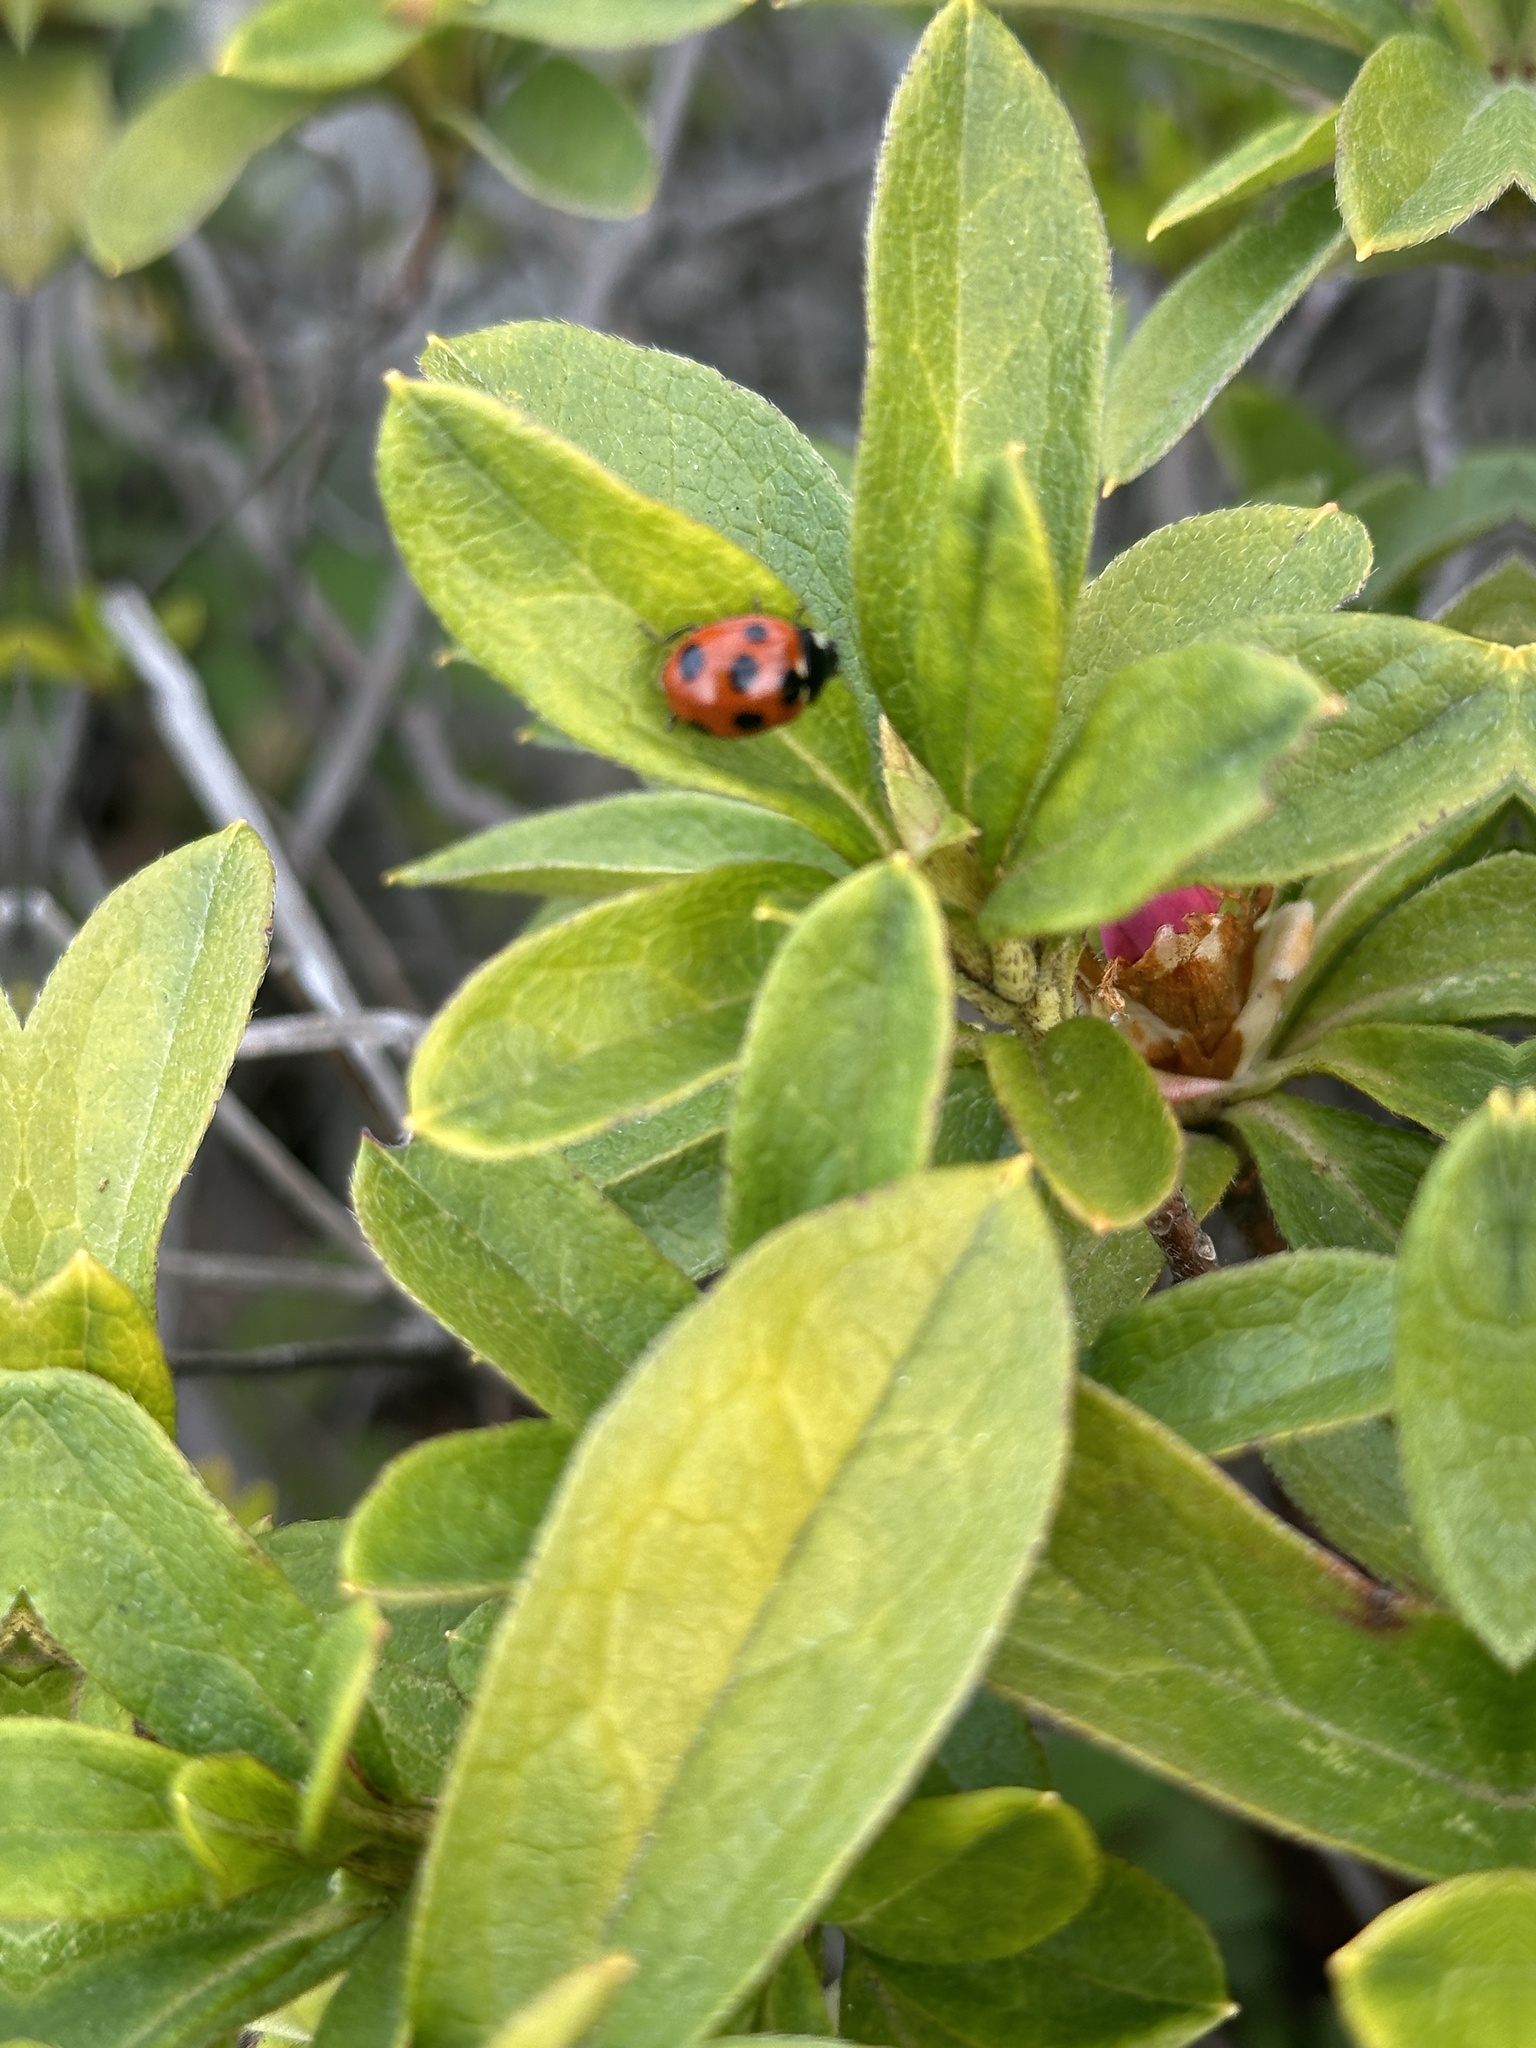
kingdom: Animalia
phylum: Arthropoda
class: Insecta
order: Coleoptera
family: Coccinellidae
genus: Coccinella
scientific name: Coccinella septempunctata
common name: Sevenspotted lady beetle
